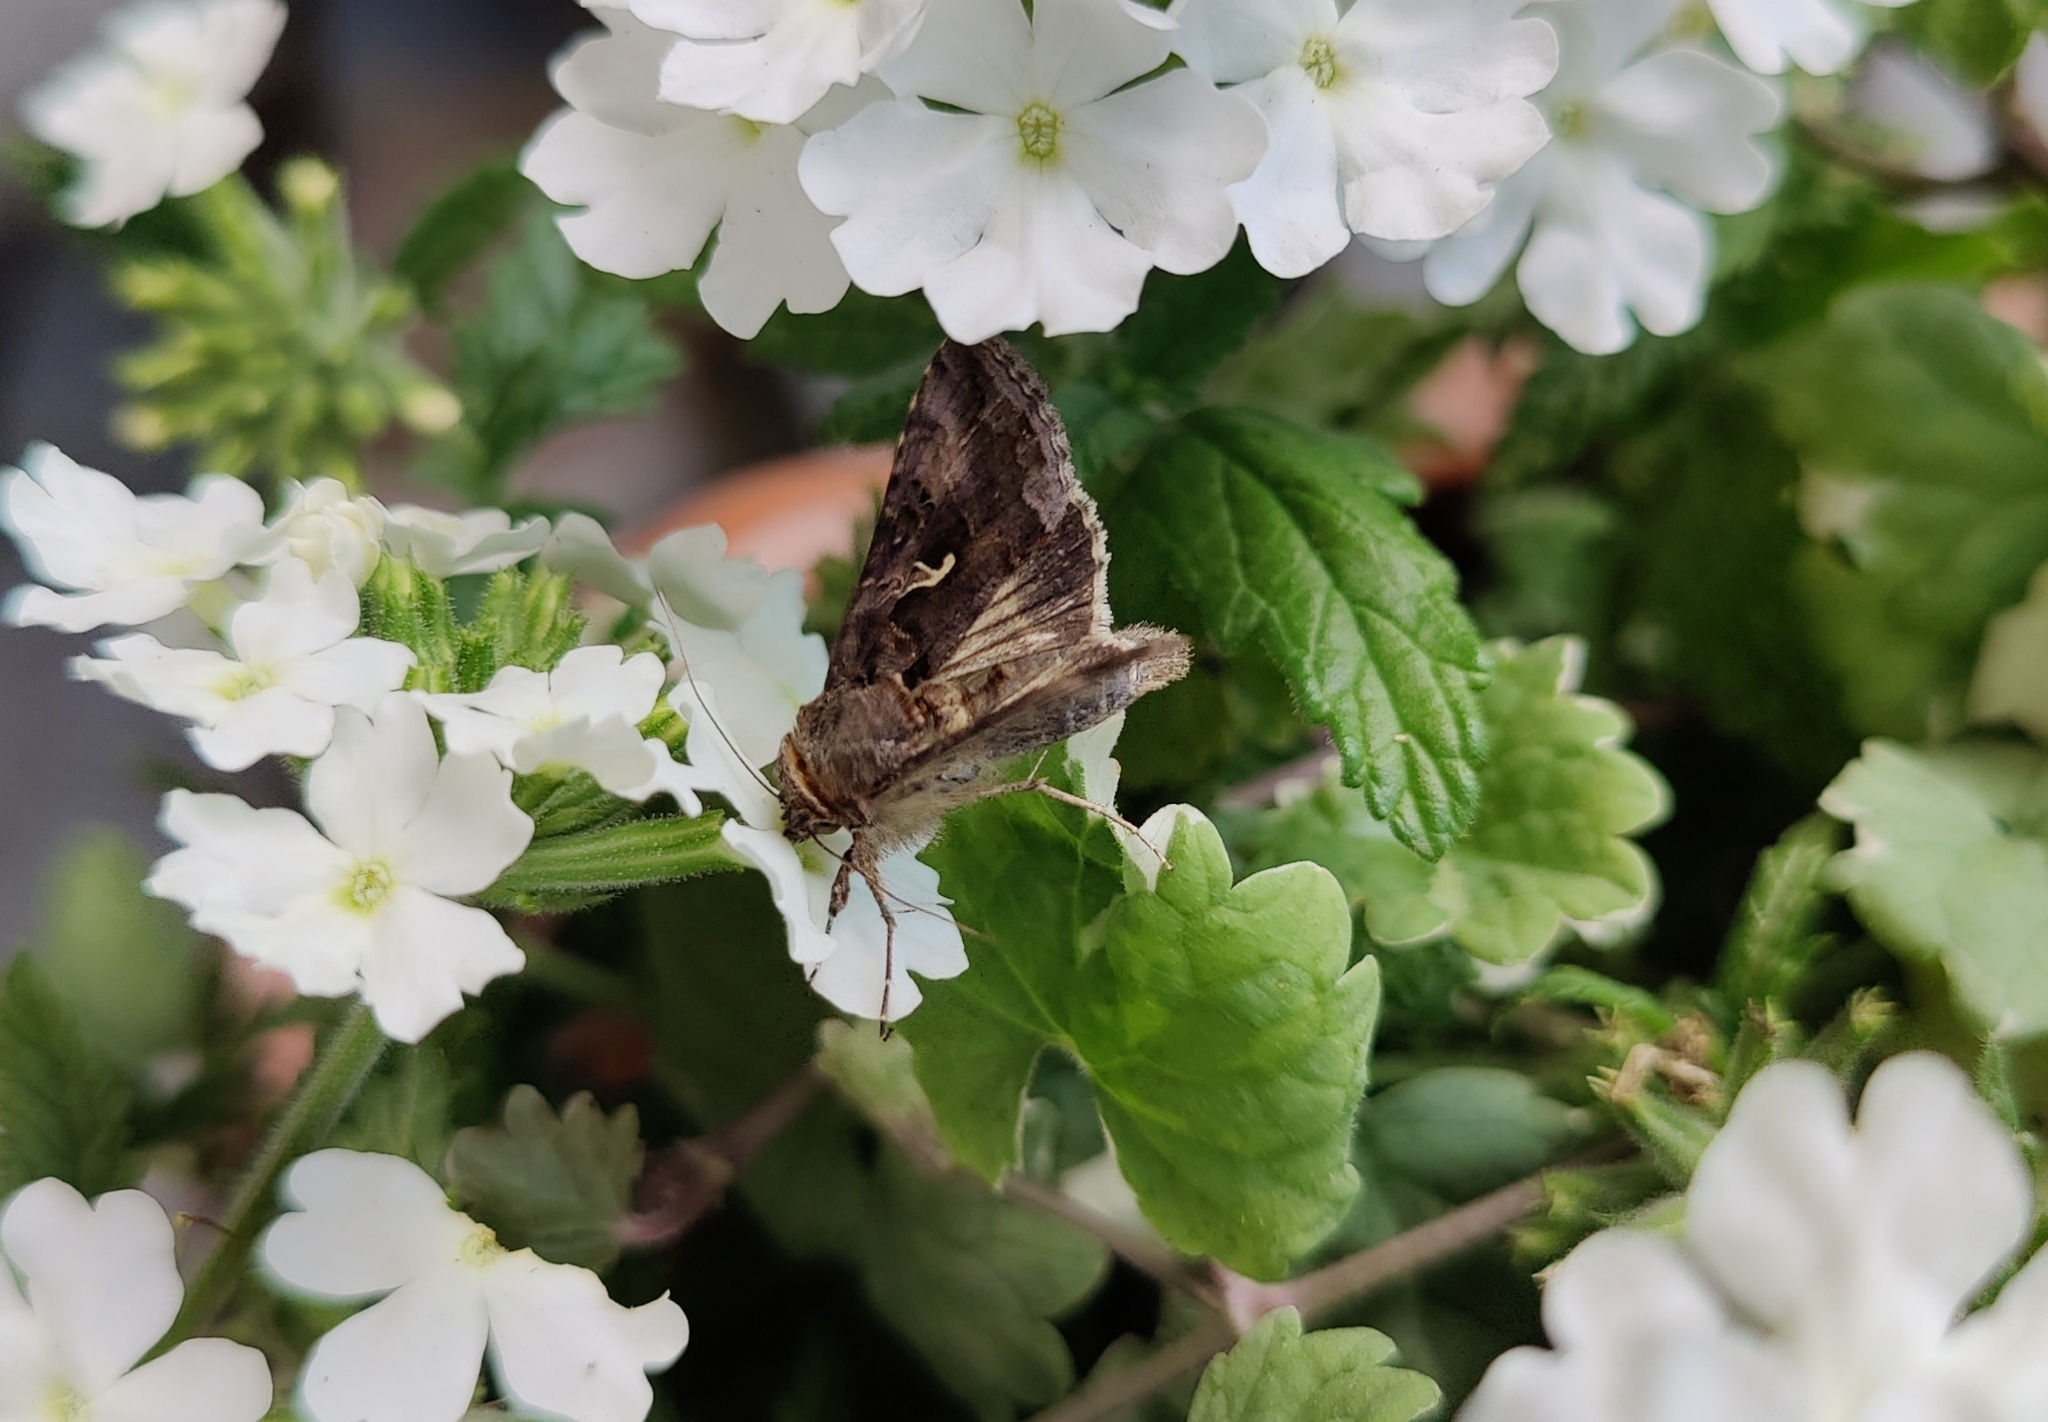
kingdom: Animalia
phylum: Arthropoda
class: Insecta
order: Lepidoptera
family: Noctuidae
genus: Autographa
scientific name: Autographa gamma
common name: Silver y
